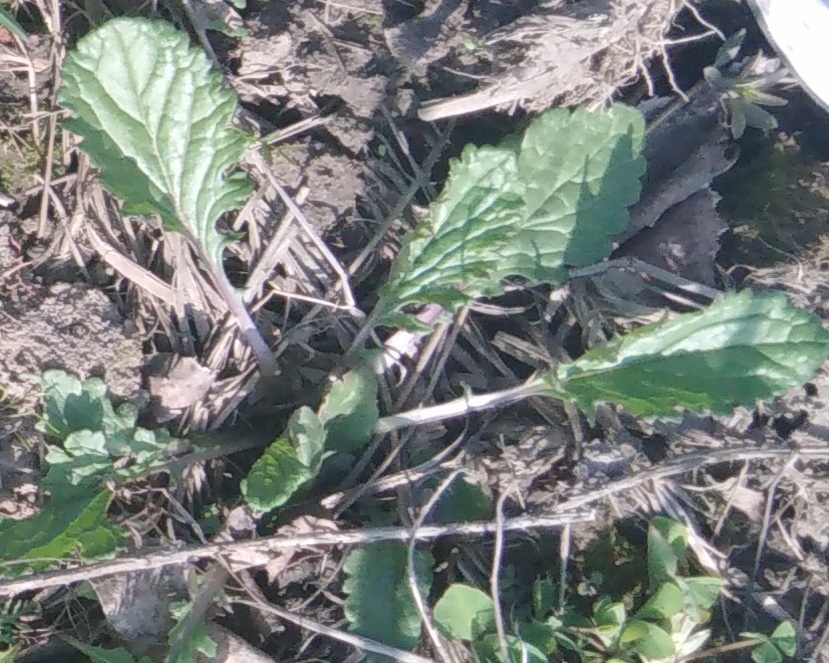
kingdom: Plantae
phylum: Tracheophyta
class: Magnoliopsida
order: Asterales
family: Asteraceae
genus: Jacobaea
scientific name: Jacobaea vulgaris
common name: Stinking willie
